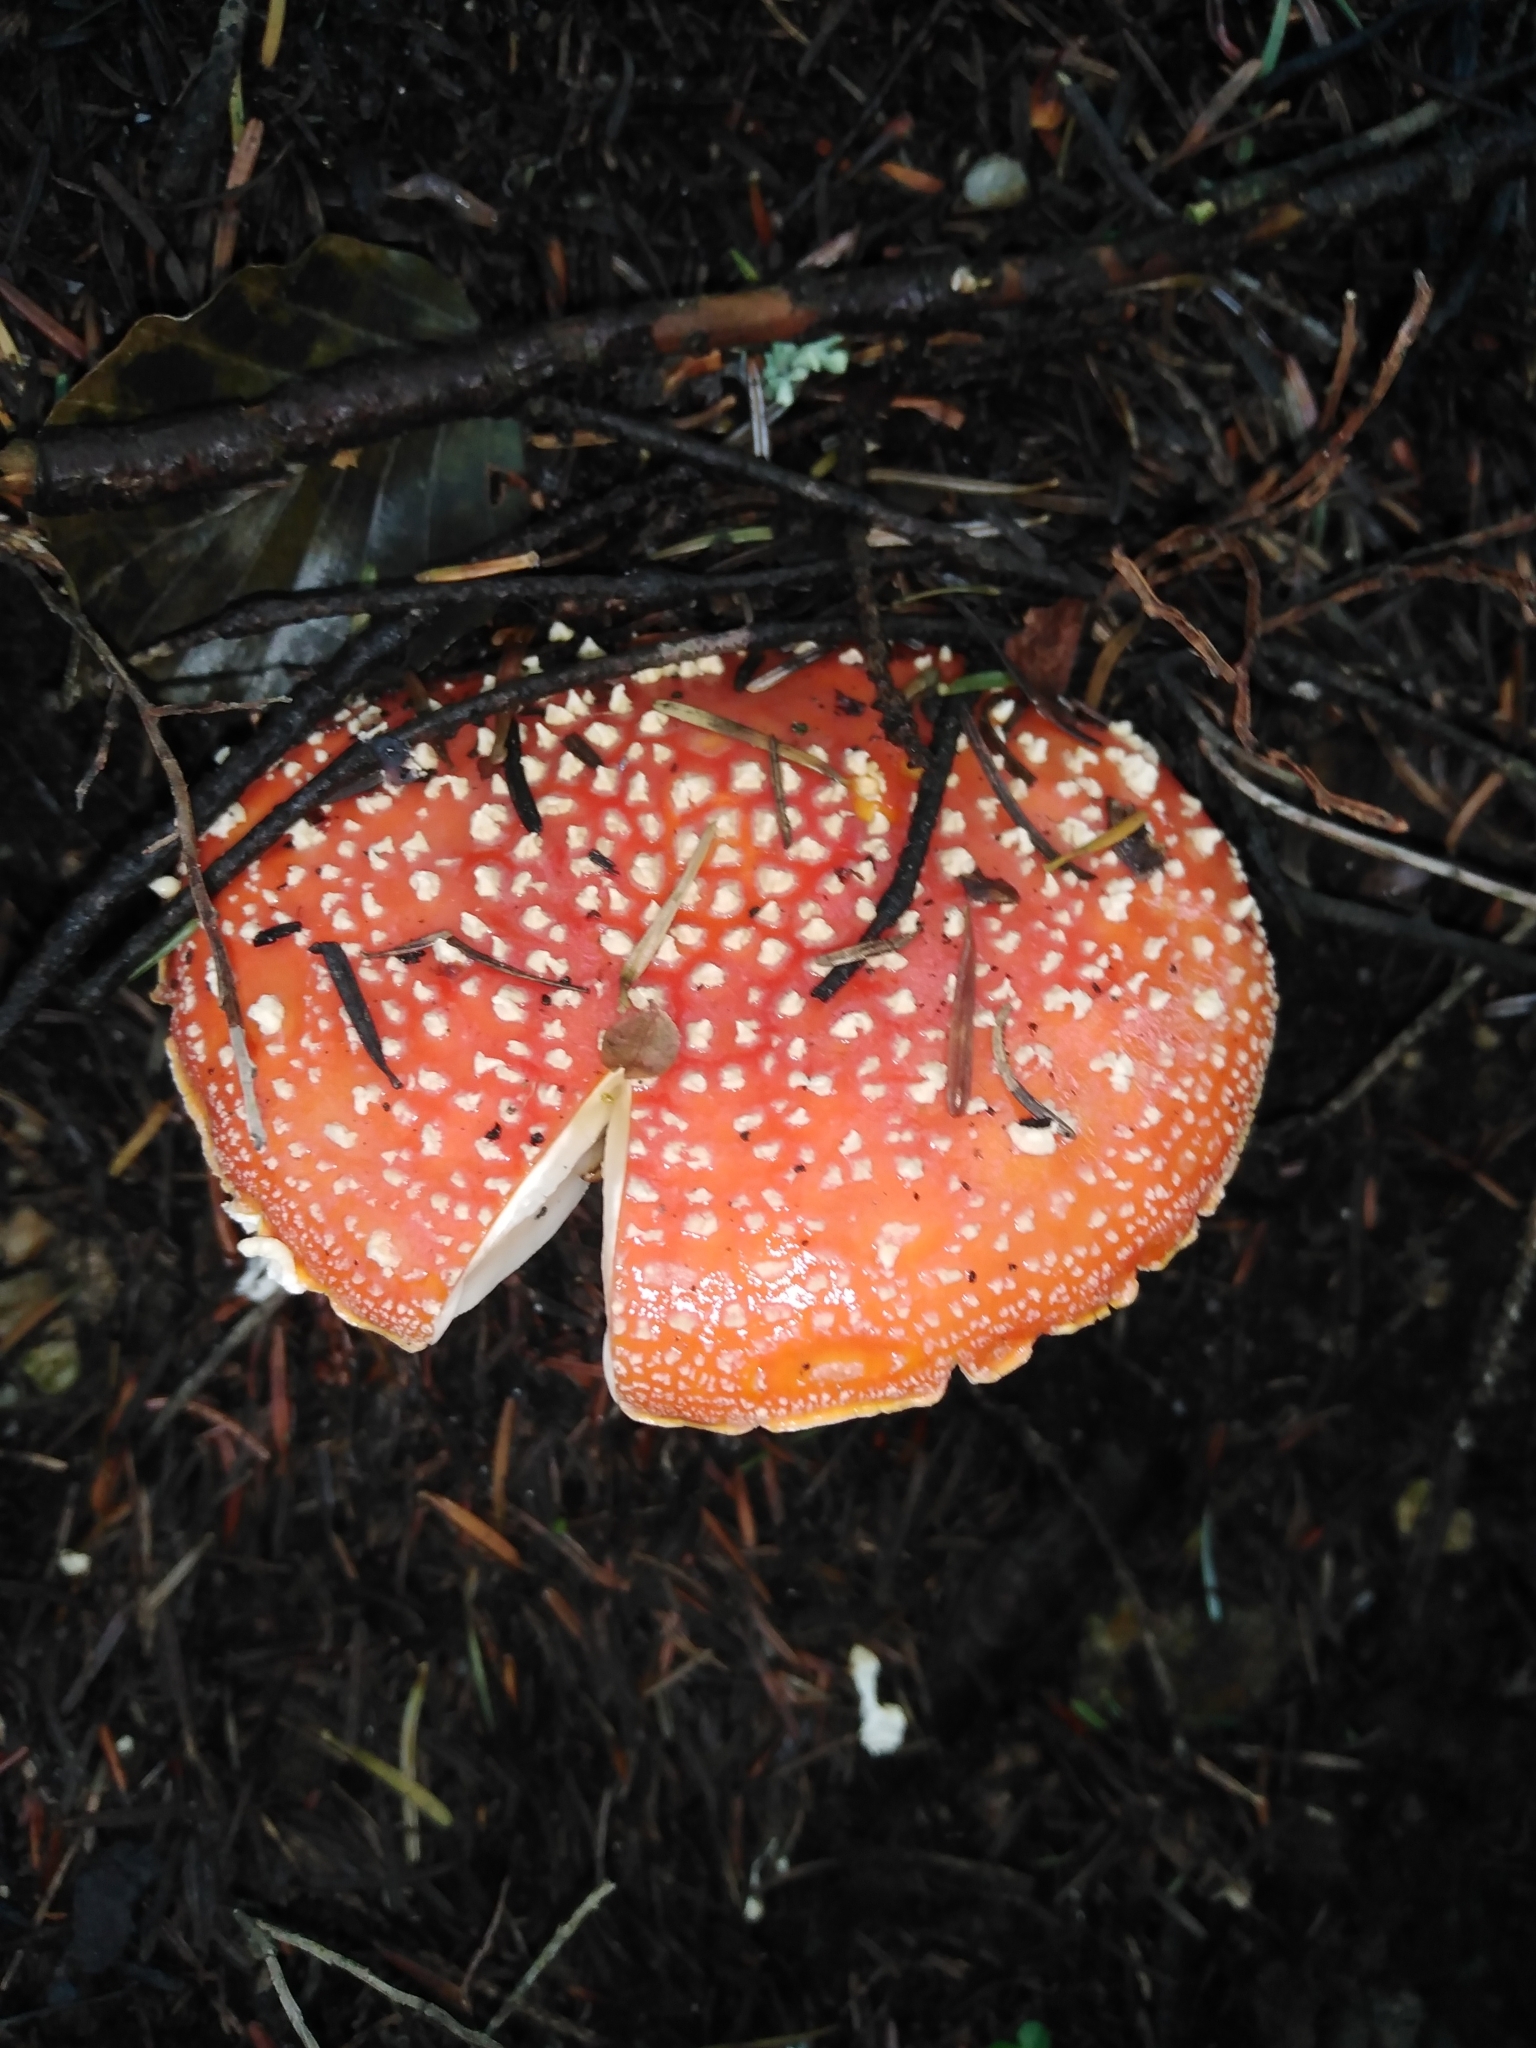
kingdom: Fungi
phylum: Basidiomycota
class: Agaricomycetes
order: Agaricales
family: Amanitaceae
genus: Amanita
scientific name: Amanita muscaria
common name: Fly agaric
